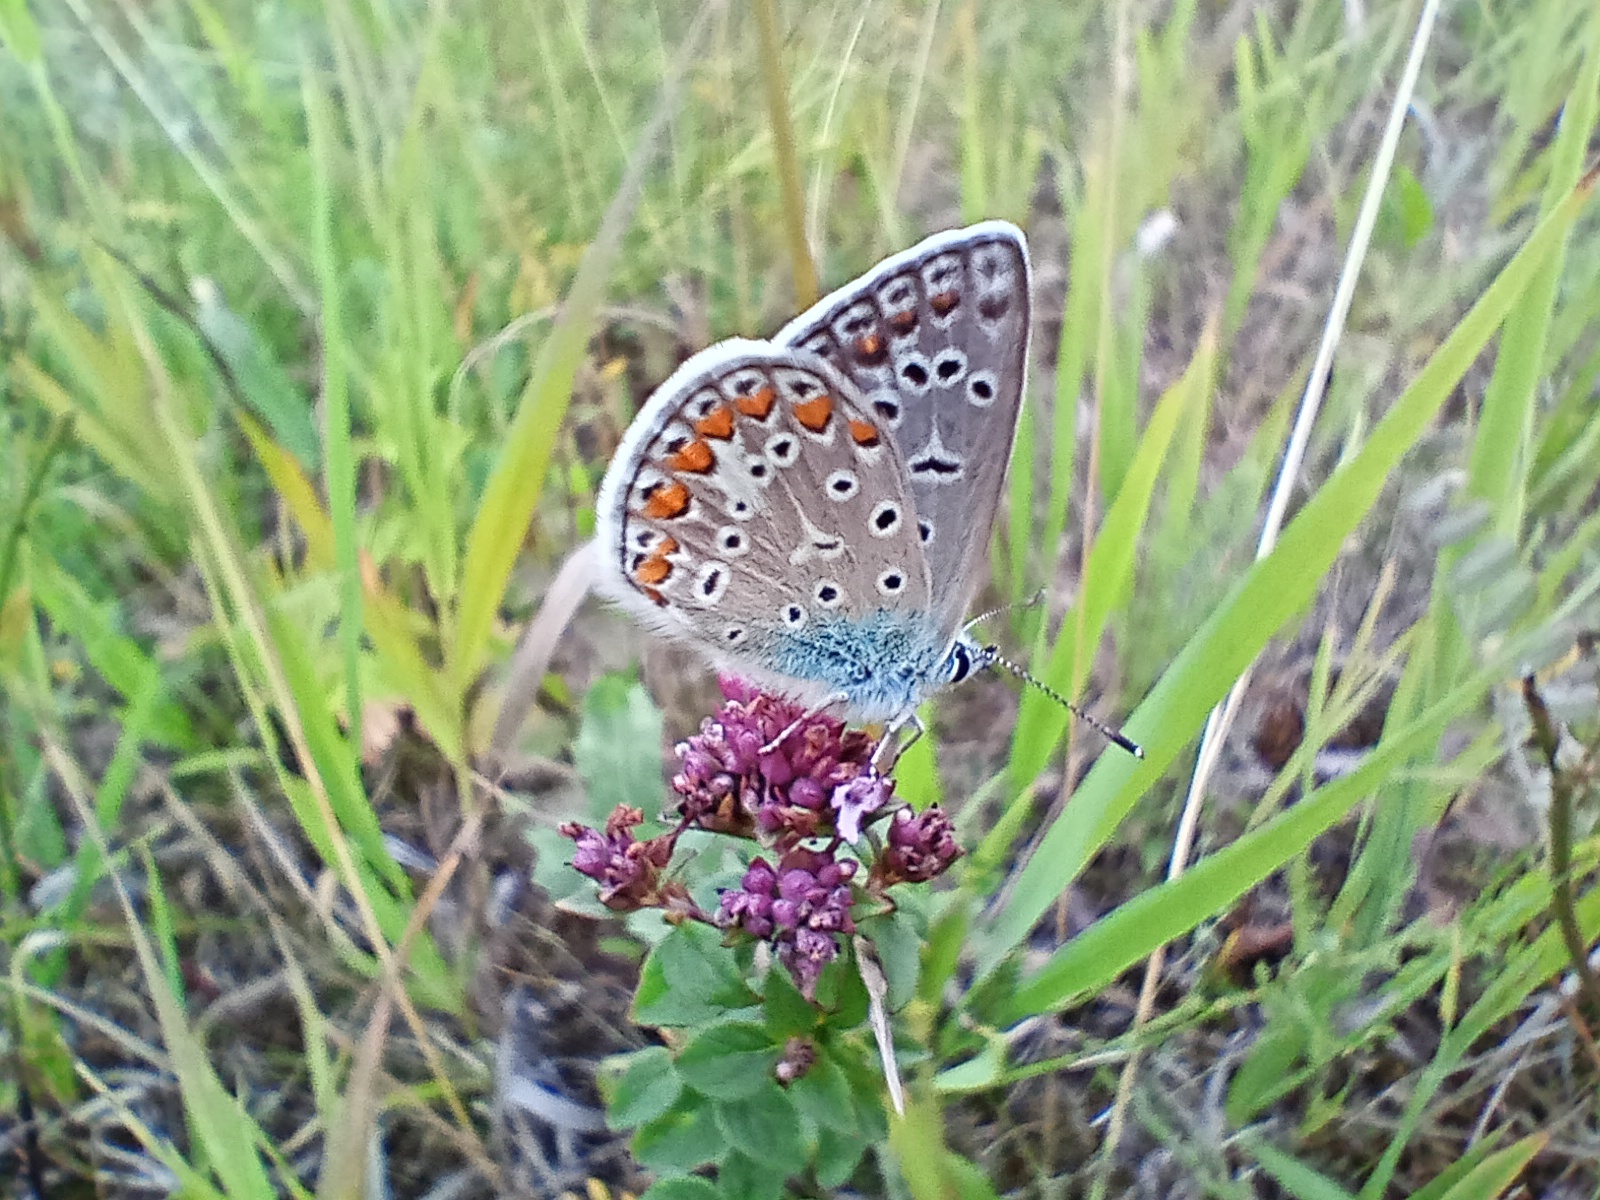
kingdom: Animalia
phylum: Arthropoda
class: Insecta
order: Lepidoptera
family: Lycaenidae
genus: Polyommatus
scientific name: Polyommatus icarus
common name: Common blue
